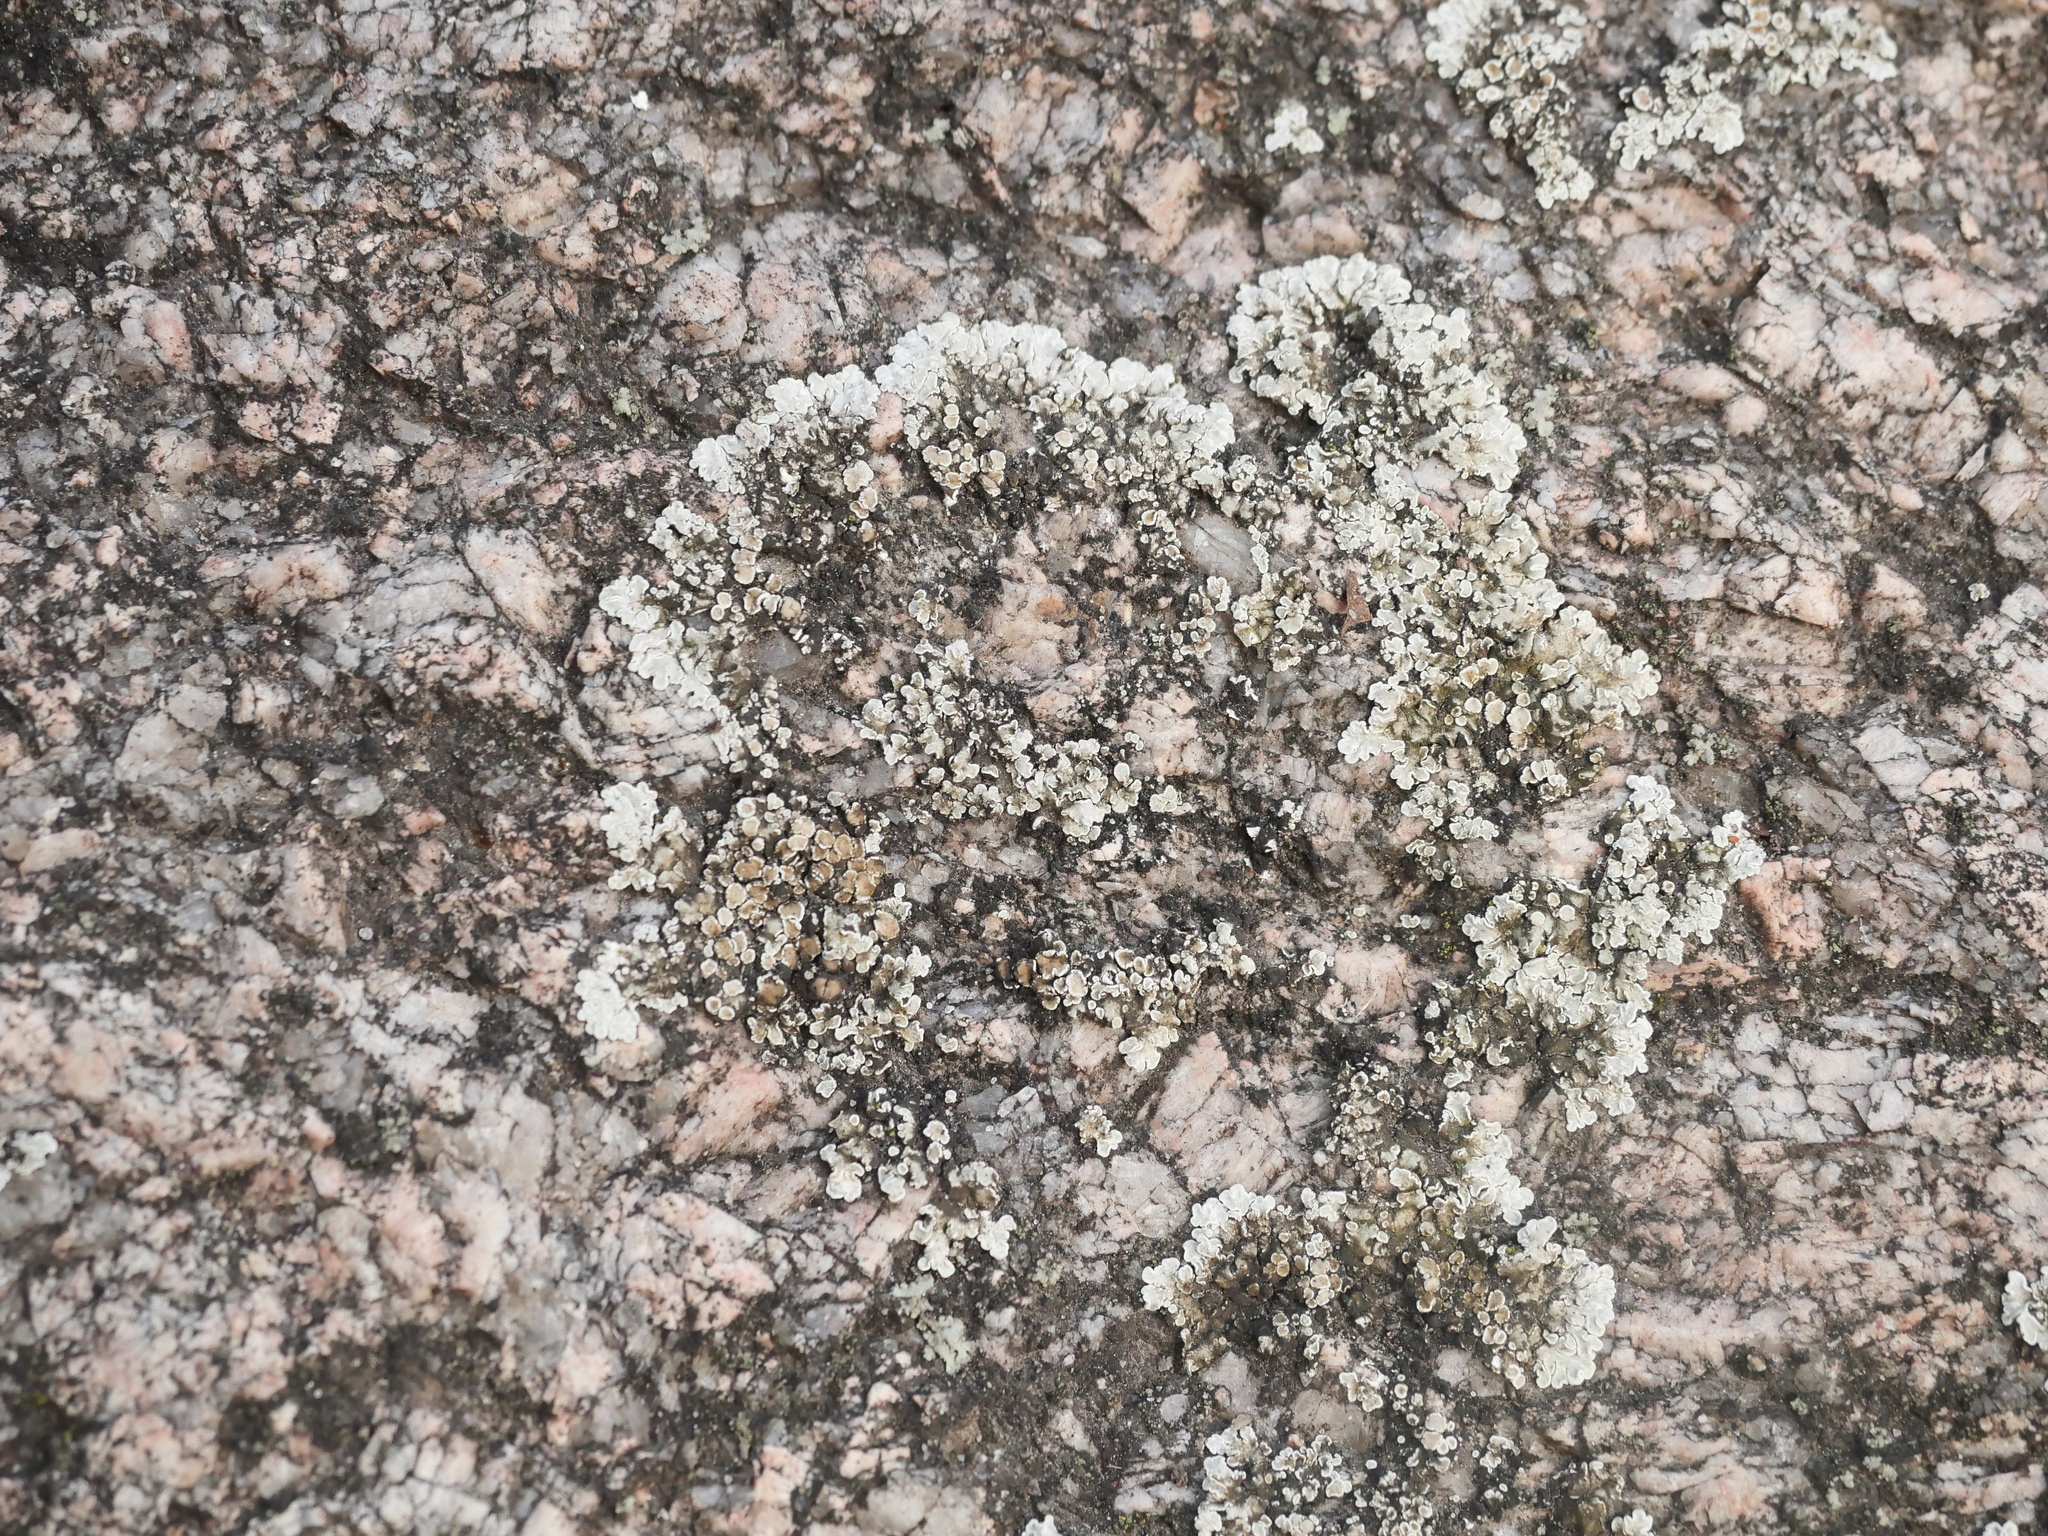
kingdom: Fungi
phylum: Ascomycota
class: Lecanoromycetes
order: Lecanorales
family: Lecanoraceae
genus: Protoparmeliopsis
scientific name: Protoparmeliopsis muralis
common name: Stonewall rim lichen
